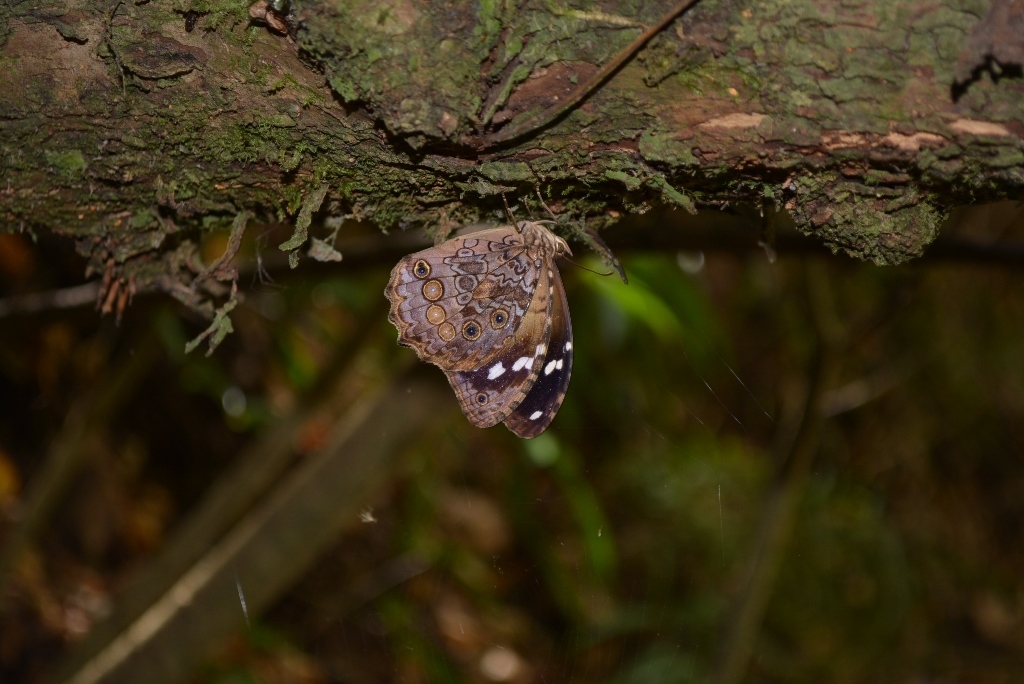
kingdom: Animalia
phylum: Arthropoda
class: Insecta
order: Lepidoptera
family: Nymphalidae
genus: Manataria
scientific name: Manataria maculata
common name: White-spotted satyr
